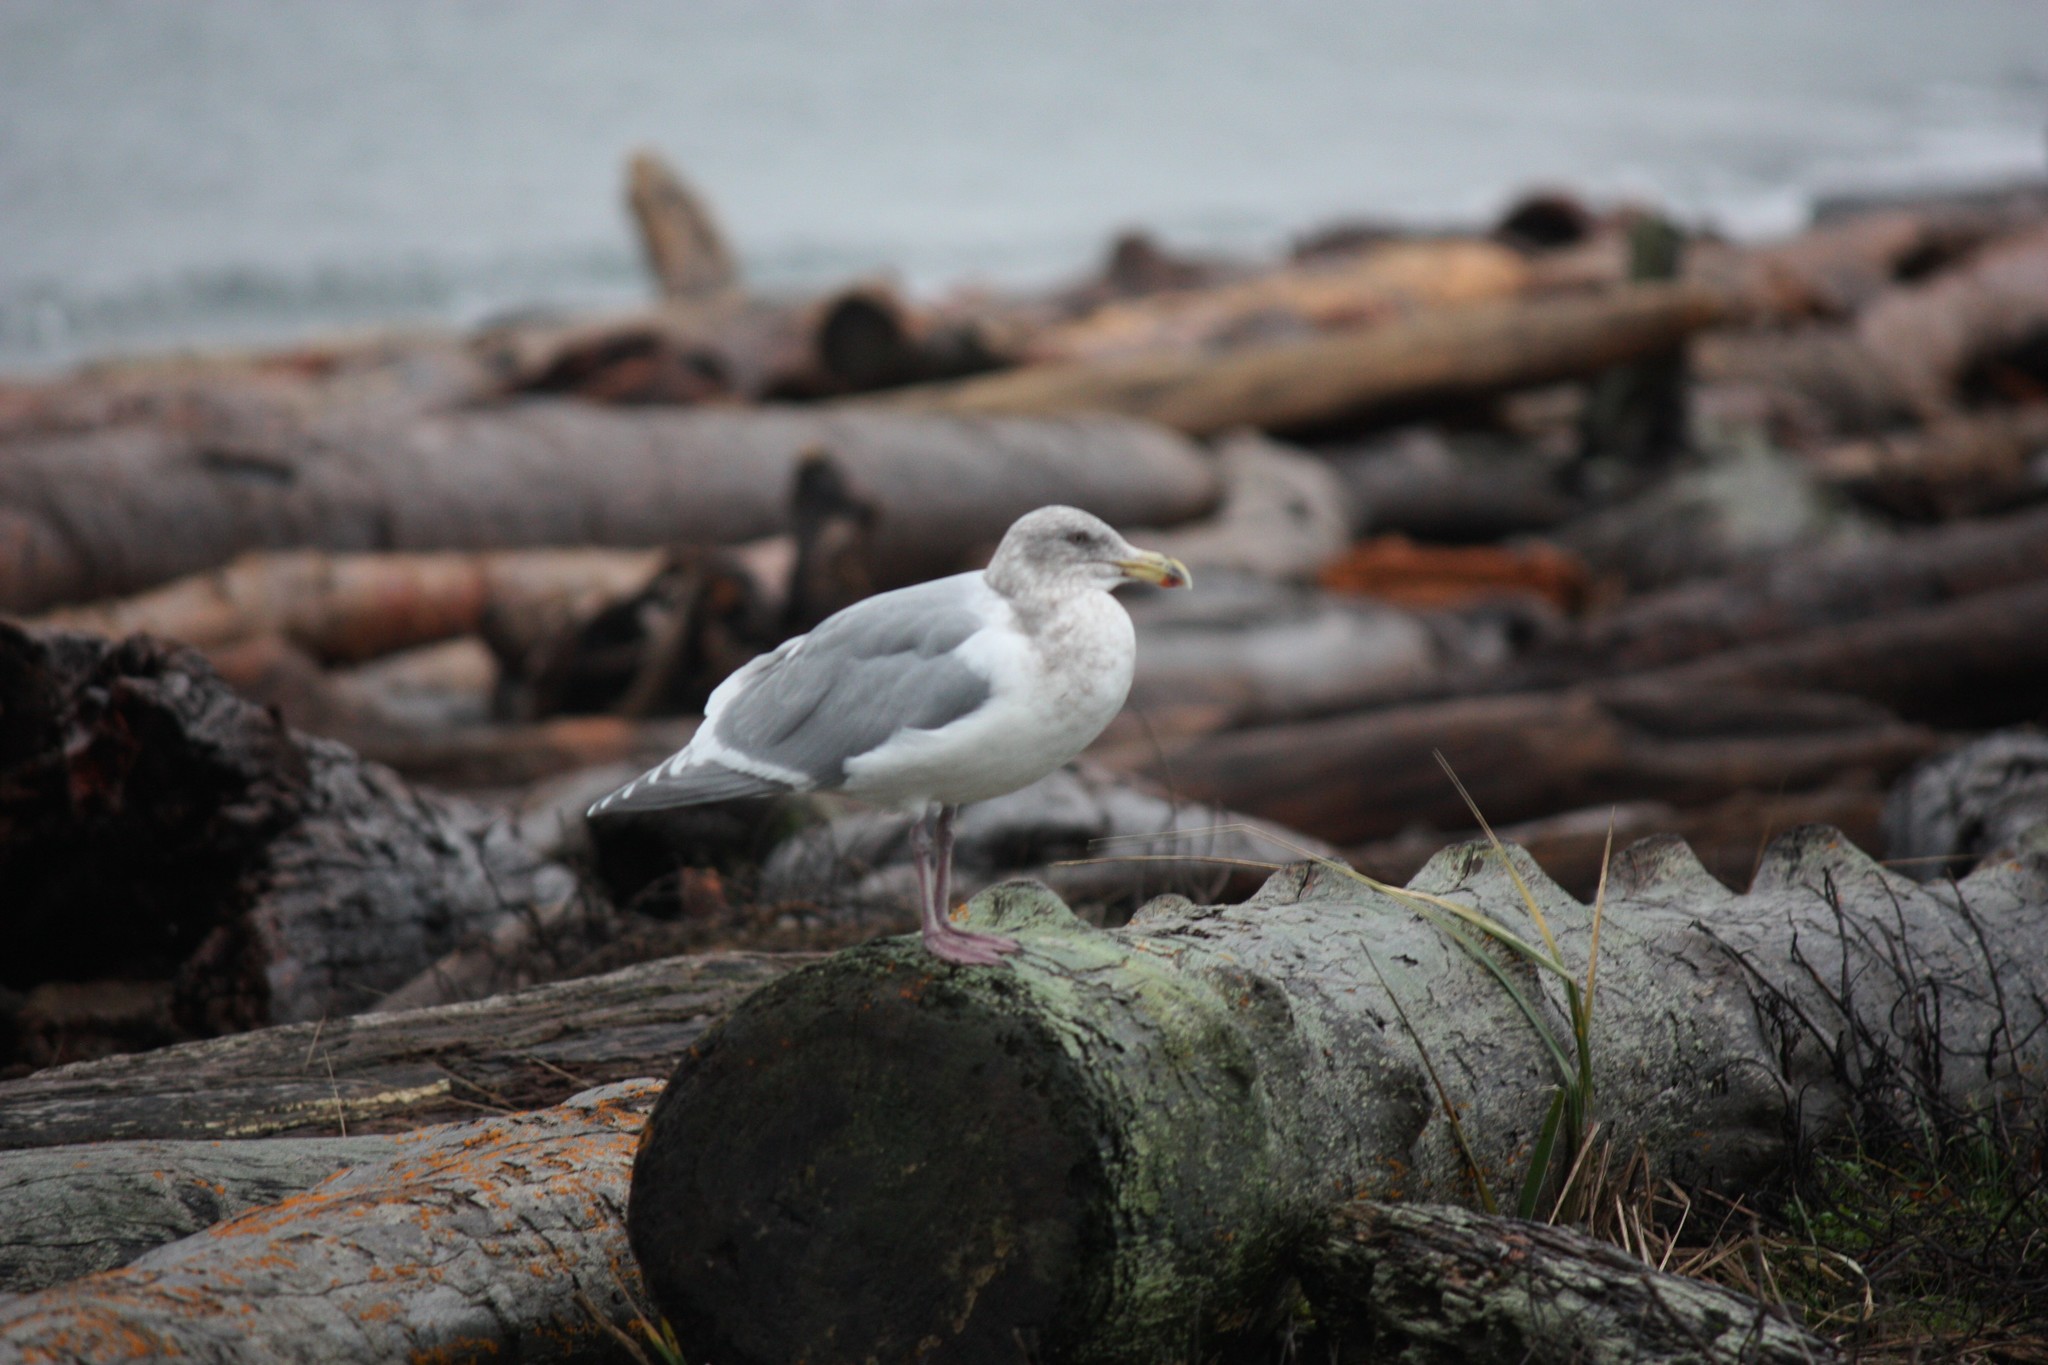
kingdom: Animalia
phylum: Chordata
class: Aves
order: Charadriiformes
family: Laridae
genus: Larus
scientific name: Larus
